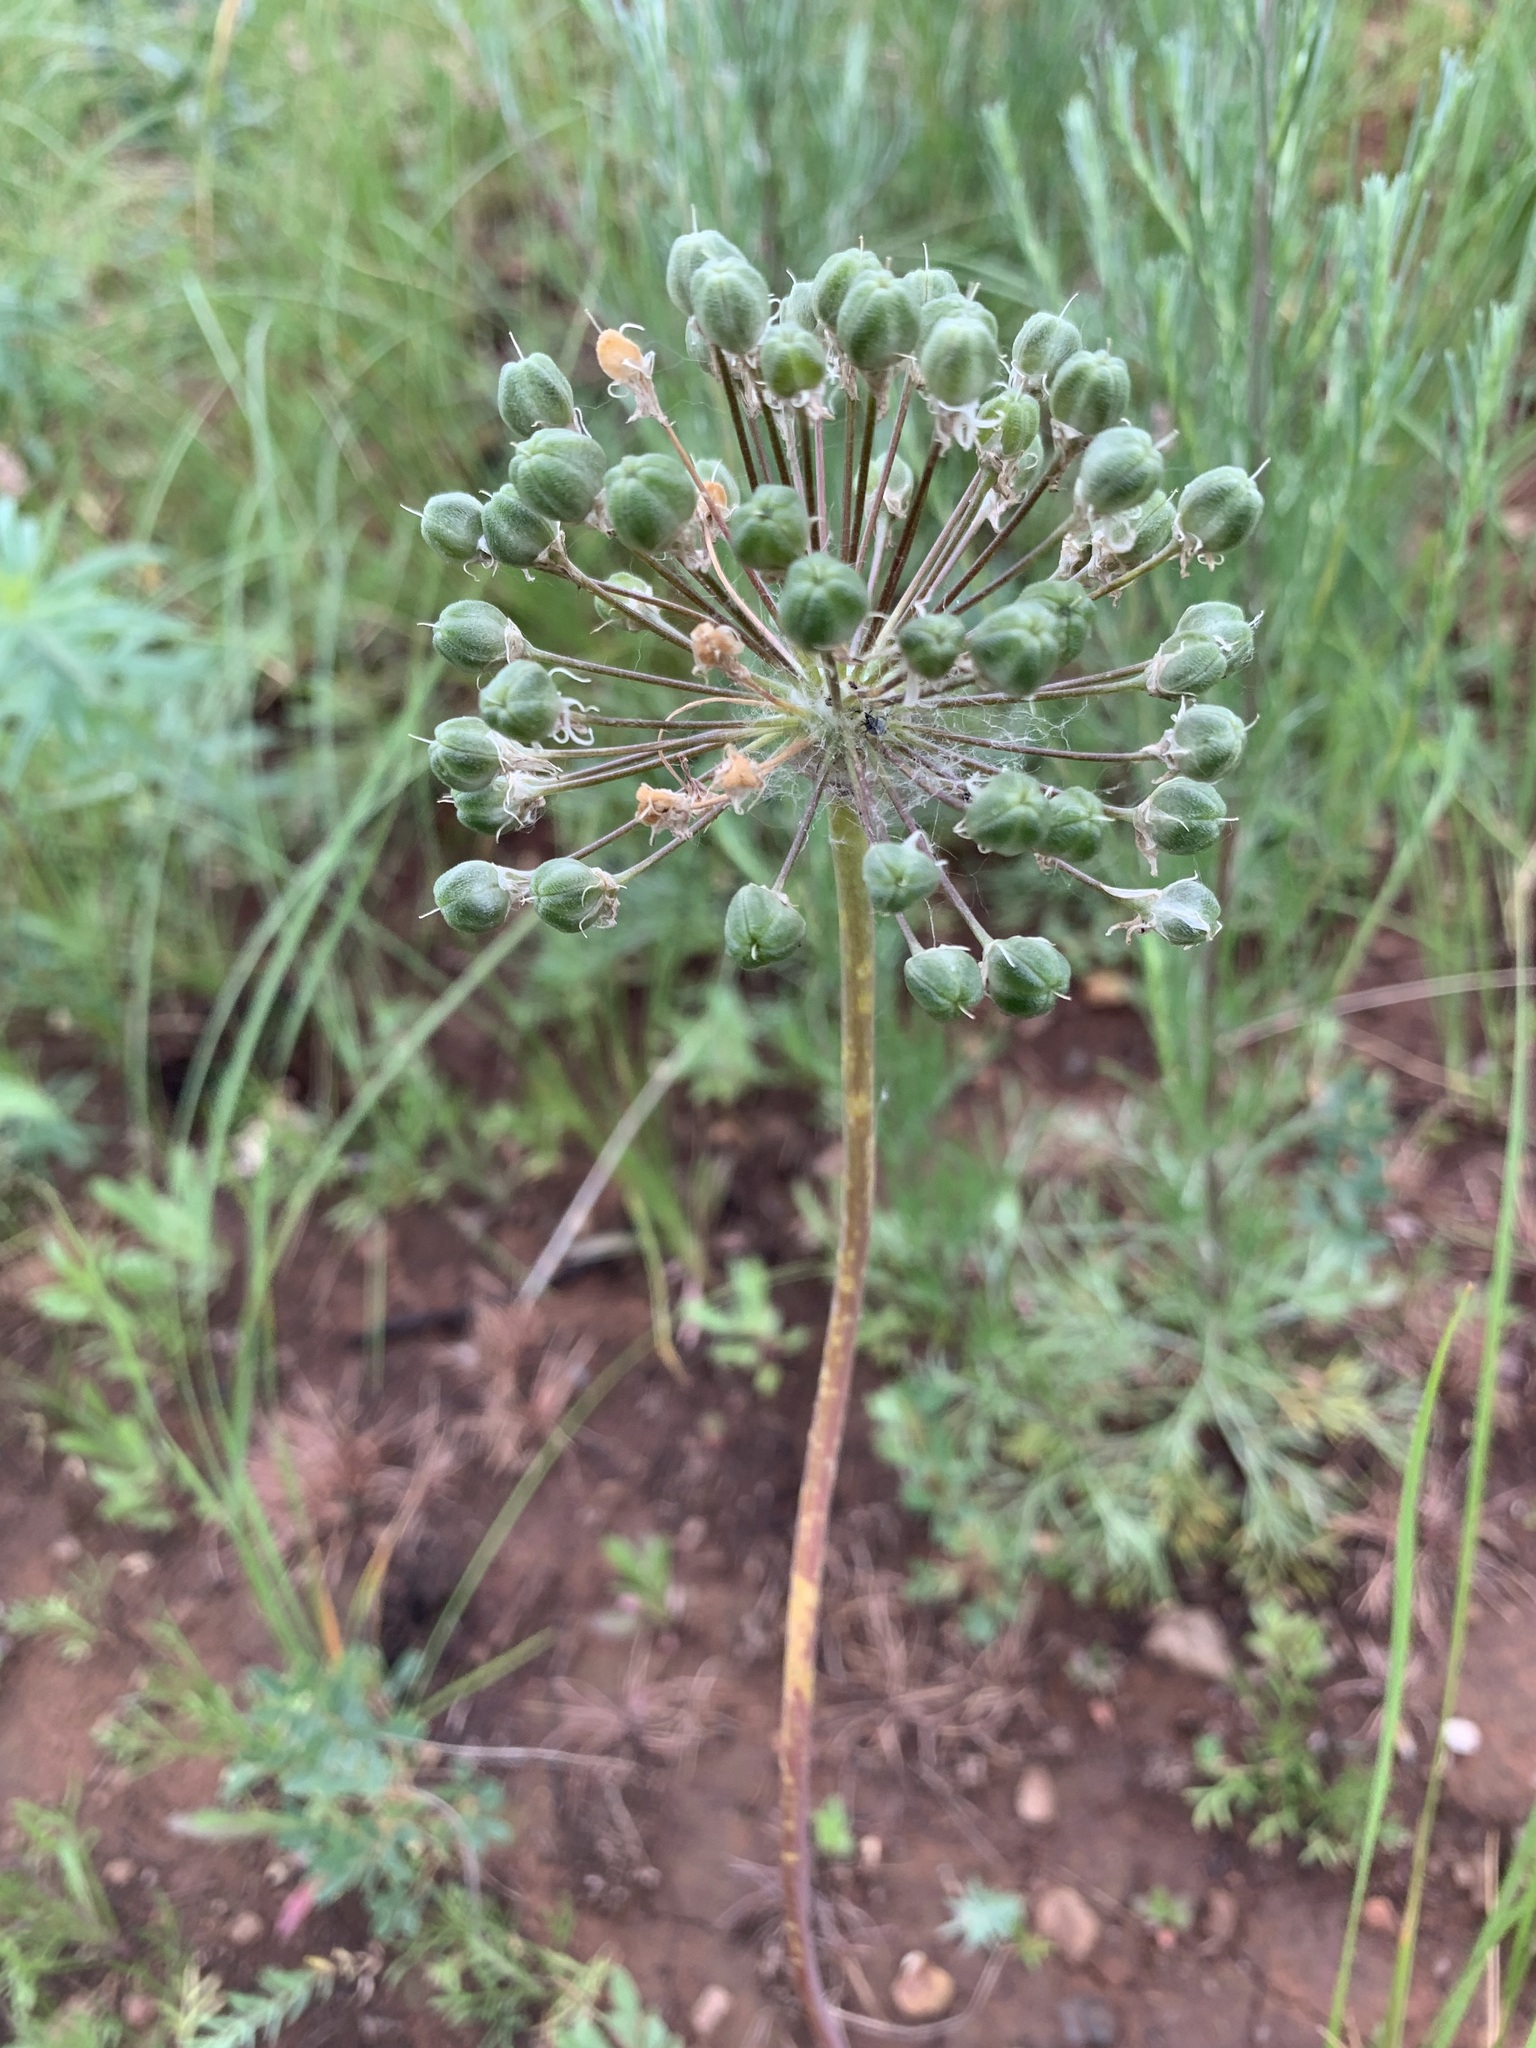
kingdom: Plantae
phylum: Tracheophyta
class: Liliopsida
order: Asparagales
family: Amaryllidaceae
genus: Allium
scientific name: Allium tulipifolium
